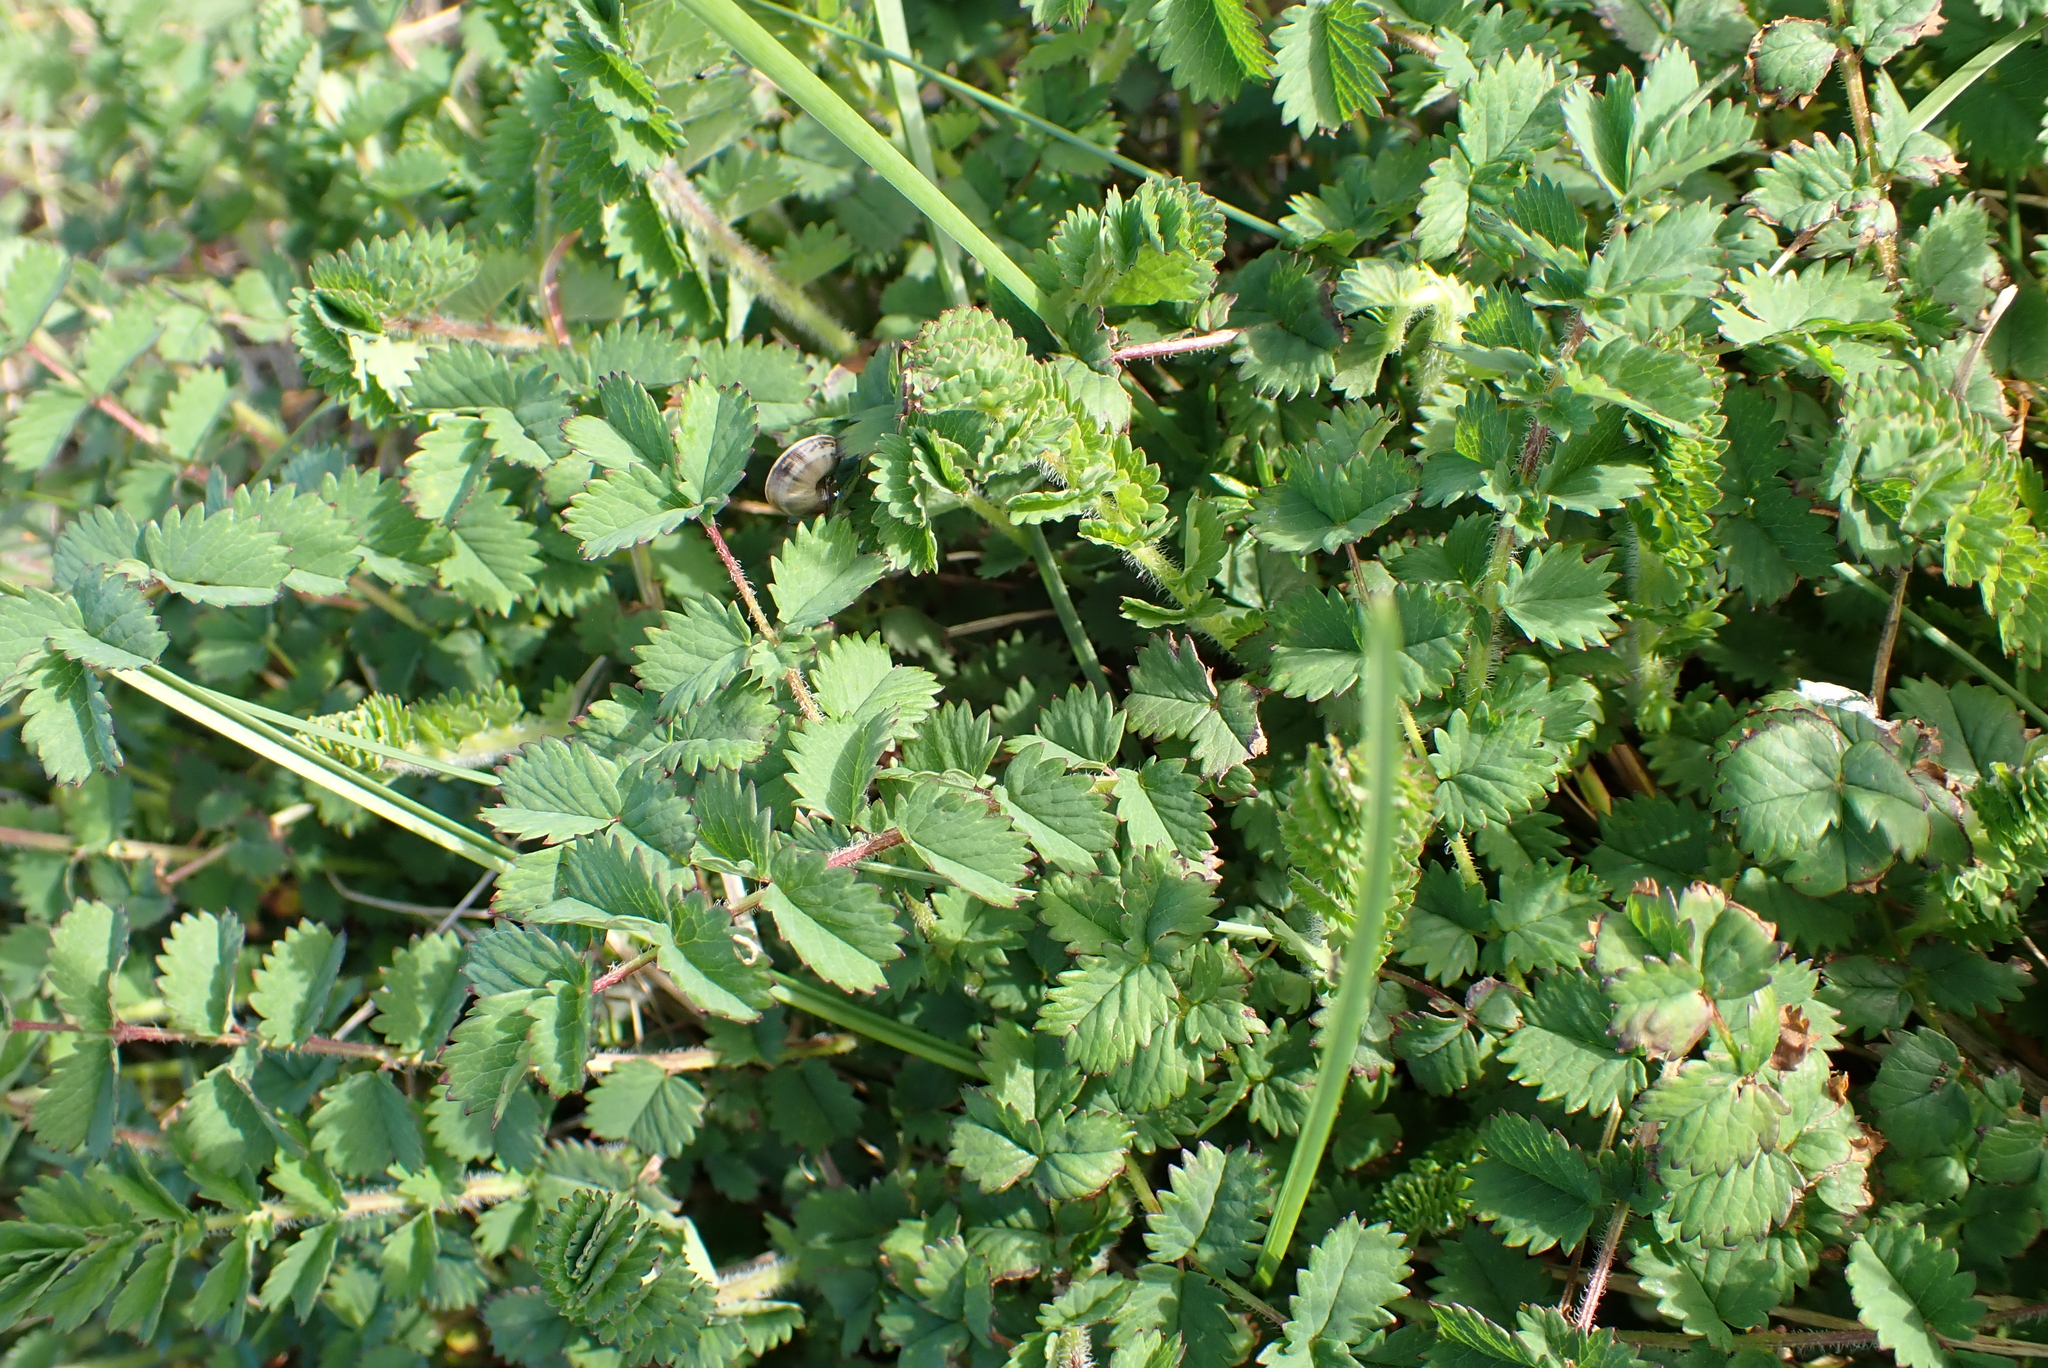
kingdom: Plantae
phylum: Tracheophyta
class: Magnoliopsida
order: Rosales
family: Rosaceae
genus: Poterium
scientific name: Poterium sanguisorba
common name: Salad burnet
